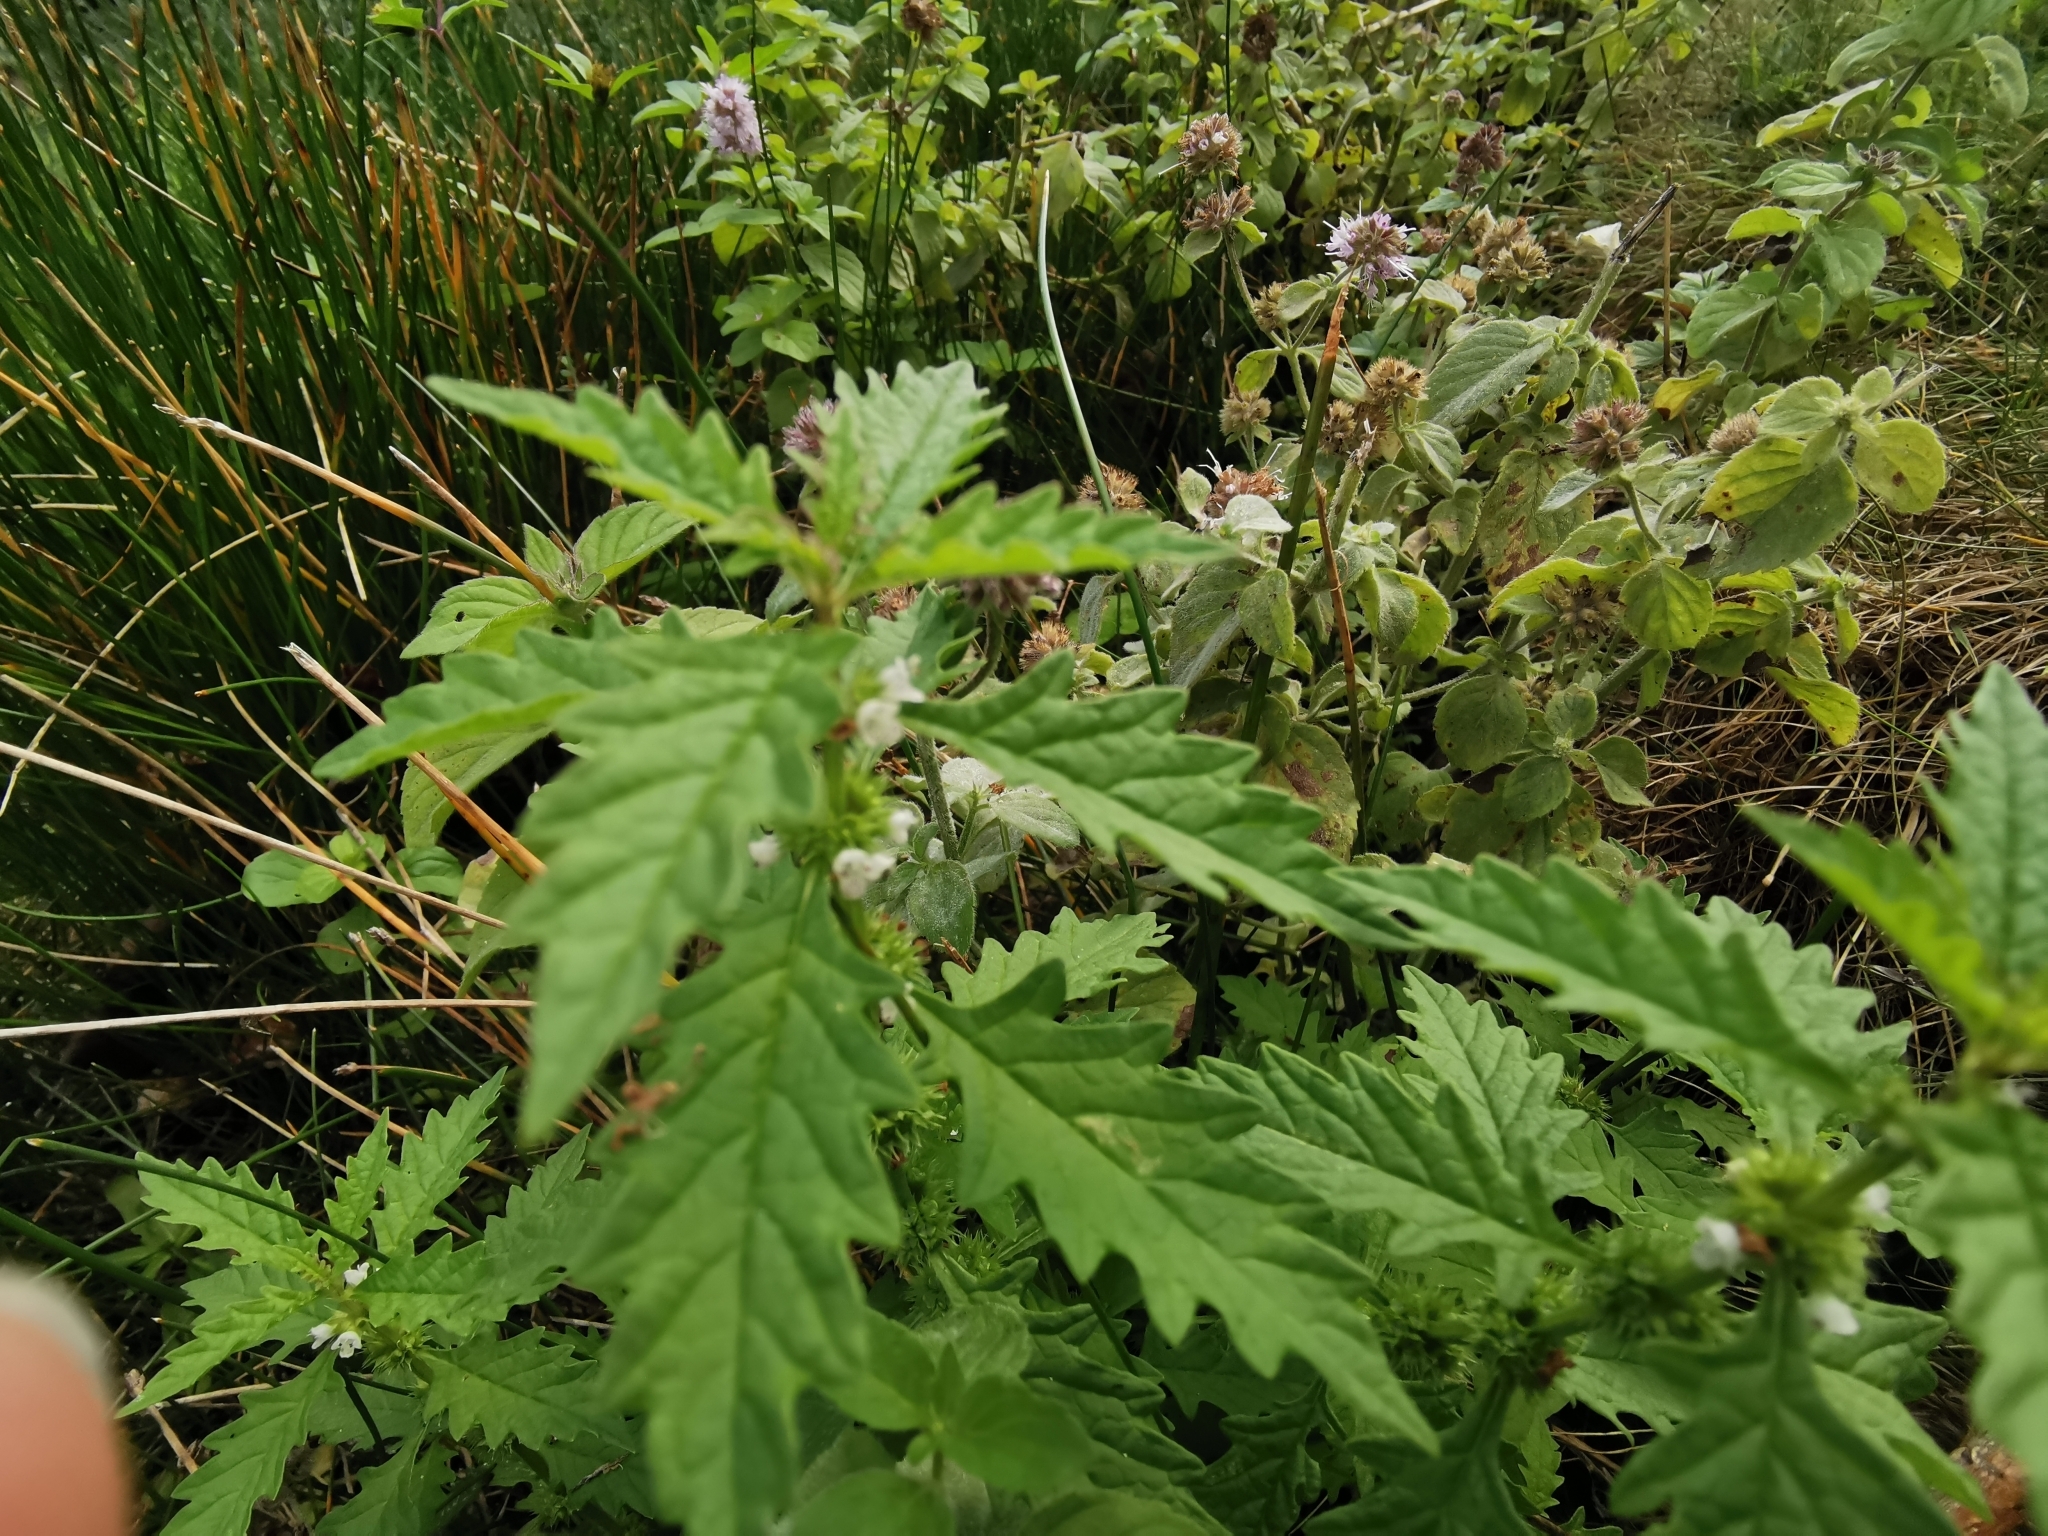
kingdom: Plantae
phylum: Tracheophyta
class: Magnoliopsida
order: Lamiales
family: Lamiaceae
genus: Lycopus
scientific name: Lycopus europaeus
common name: European bugleweed
